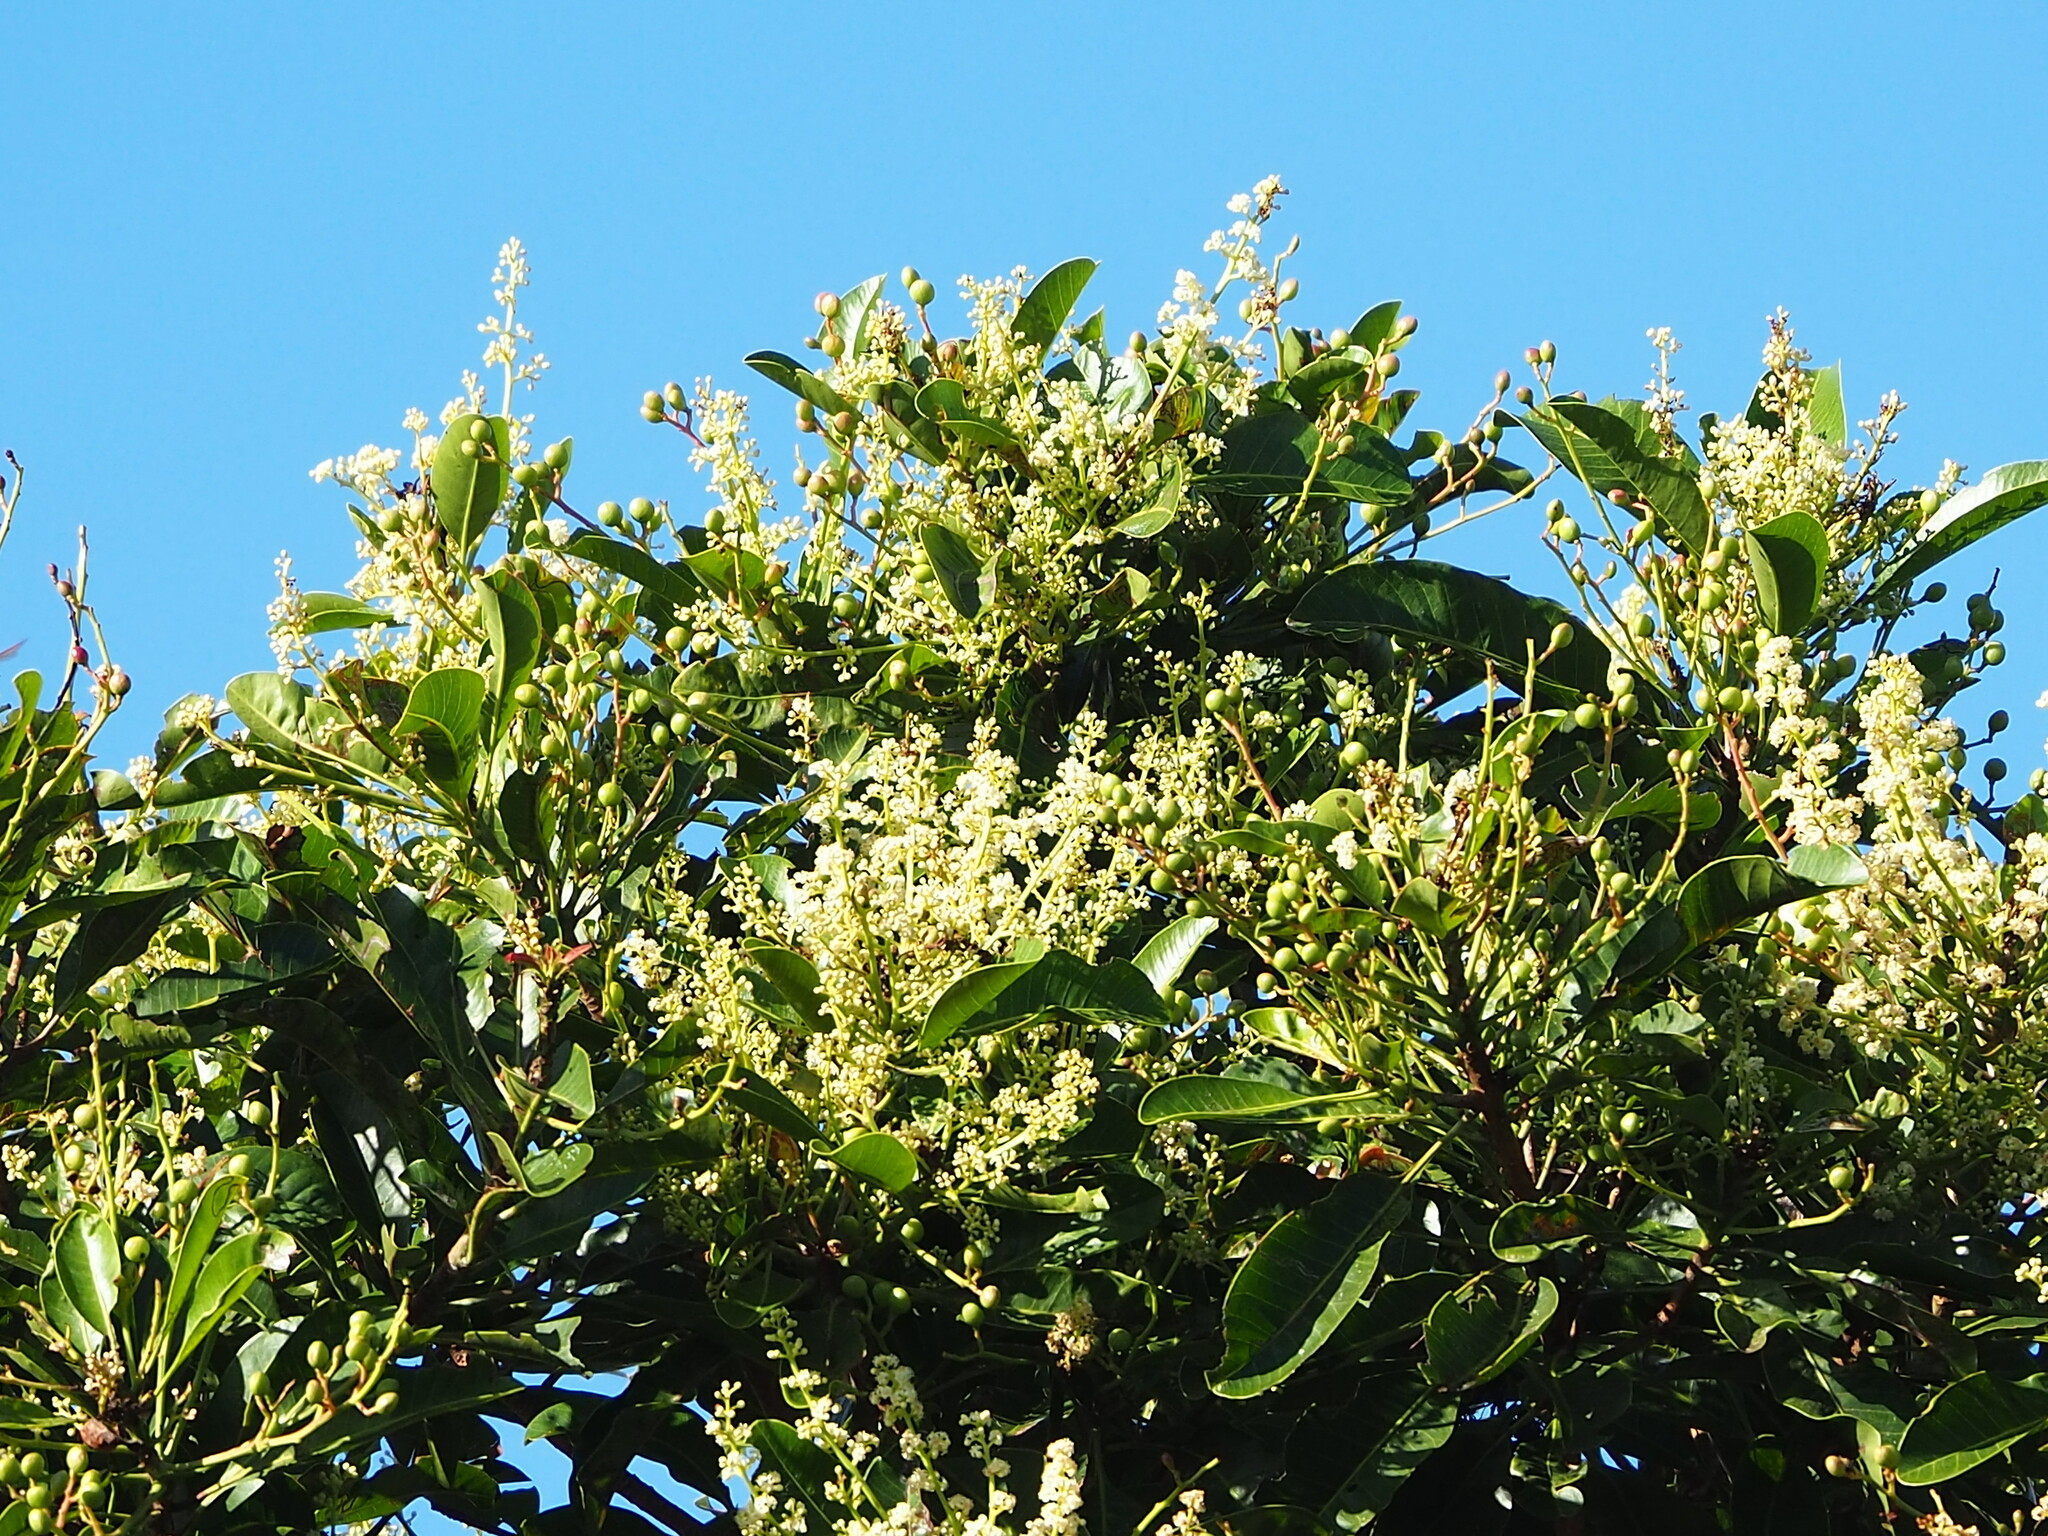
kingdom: Plantae
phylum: Tracheophyta
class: Magnoliopsida
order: Sapindales
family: Anacardiaceae
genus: Buchanania
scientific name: Buchanania arborescens
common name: Sparrow’s mango
